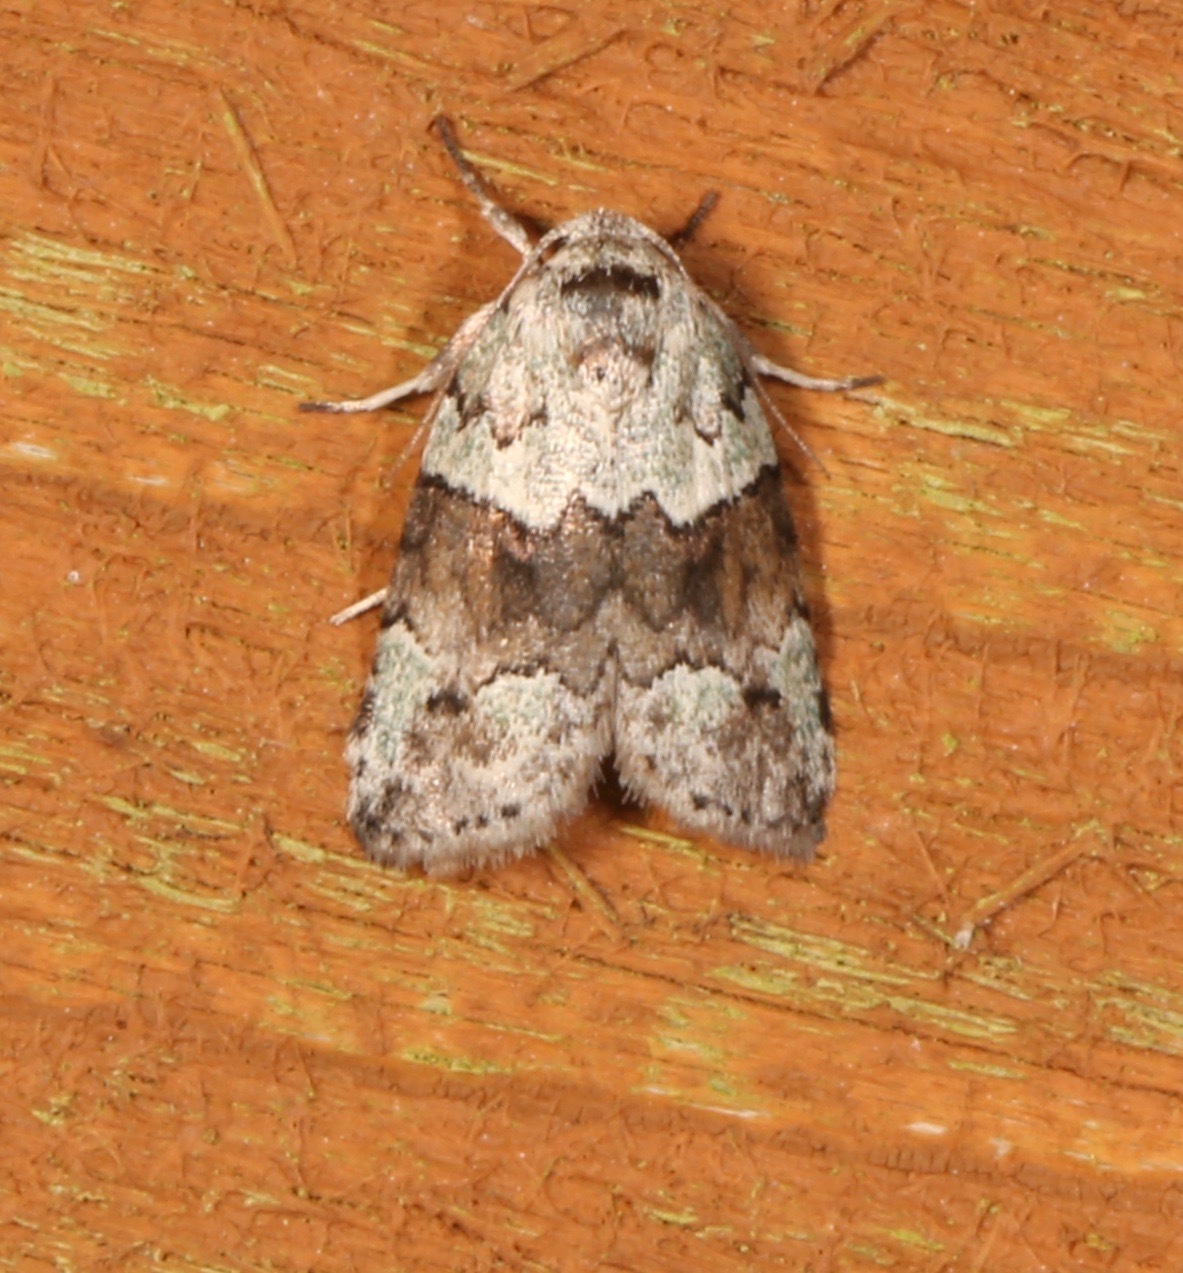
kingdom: Animalia
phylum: Arthropoda
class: Insecta
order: Lepidoptera
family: Nolidae
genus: Afrida
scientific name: Afrida ydatodes
